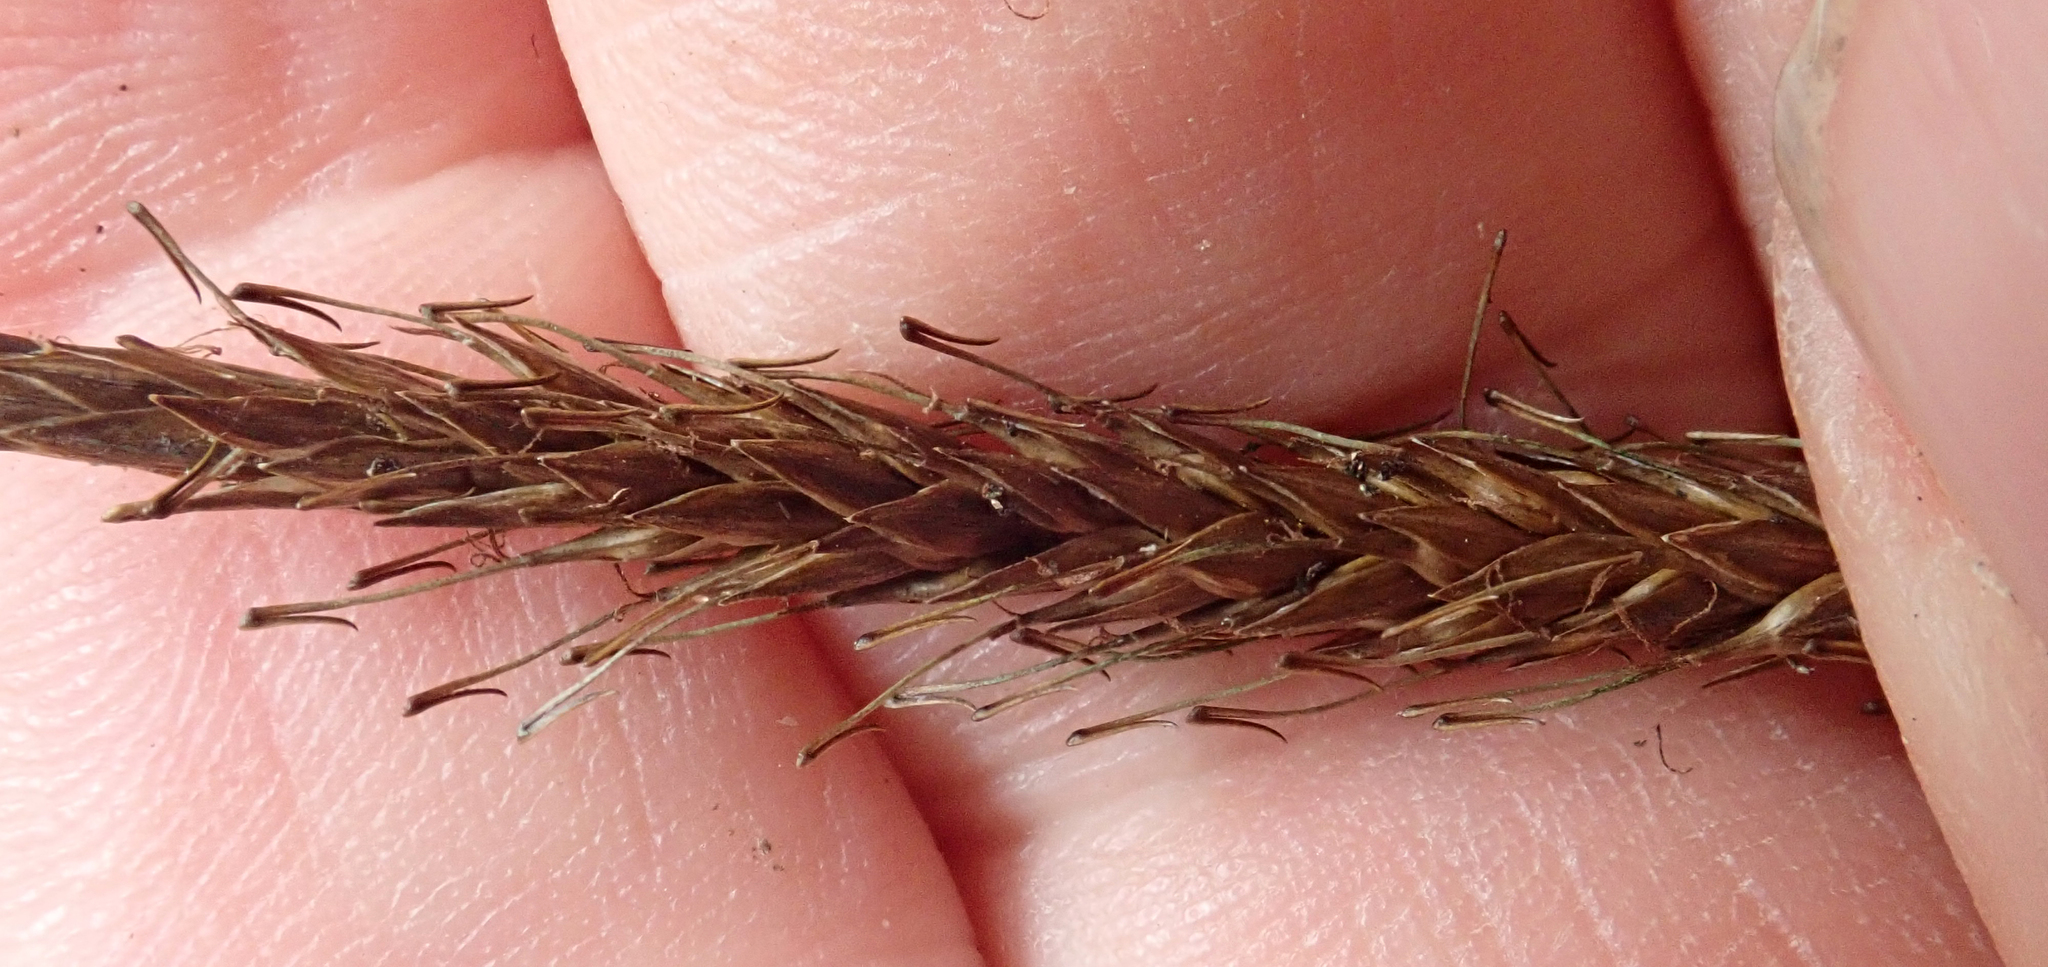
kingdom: Plantae
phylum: Tracheophyta
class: Liliopsida
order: Poales
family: Cyperaceae
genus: Carex
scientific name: Carex auceps
